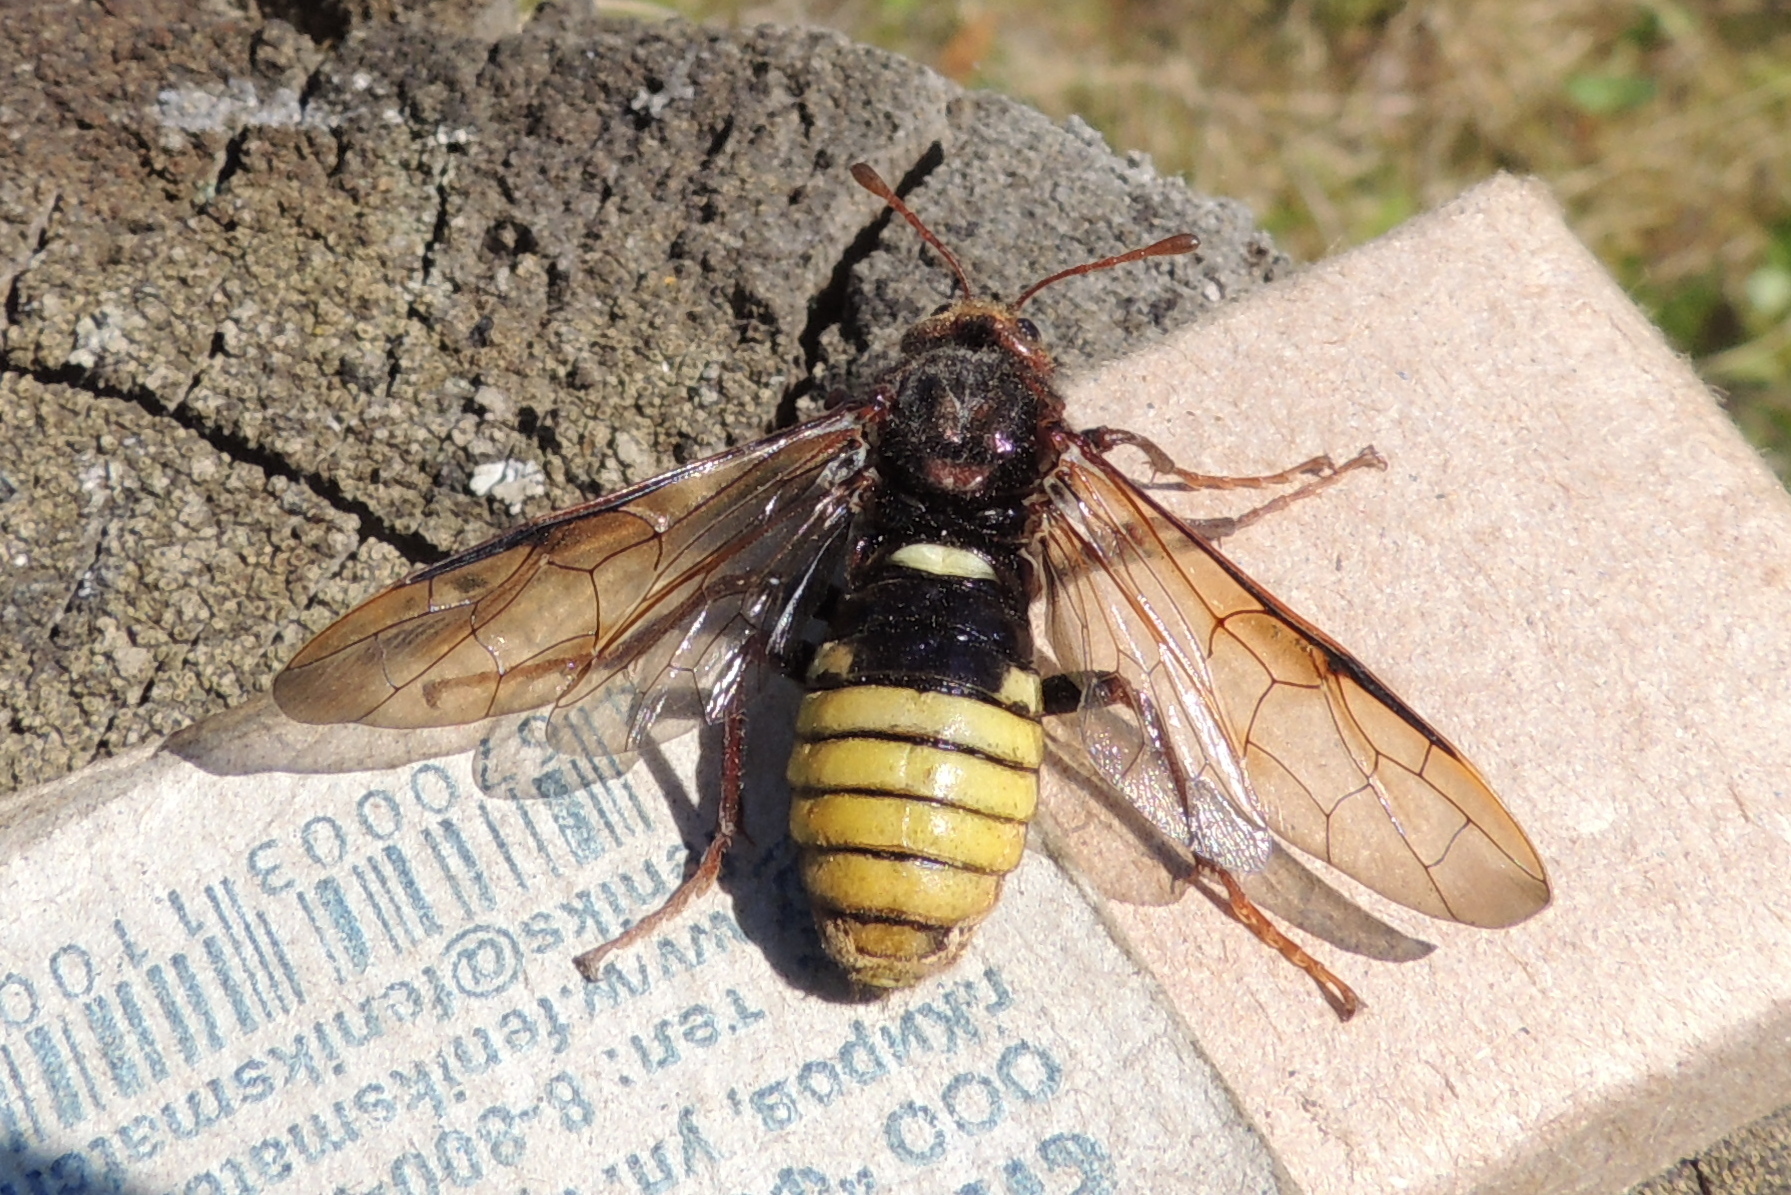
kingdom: Animalia
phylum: Arthropoda
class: Insecta
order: Hymenoptera
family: Cimbicidae
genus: Cimbex
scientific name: Cimbex connatus
